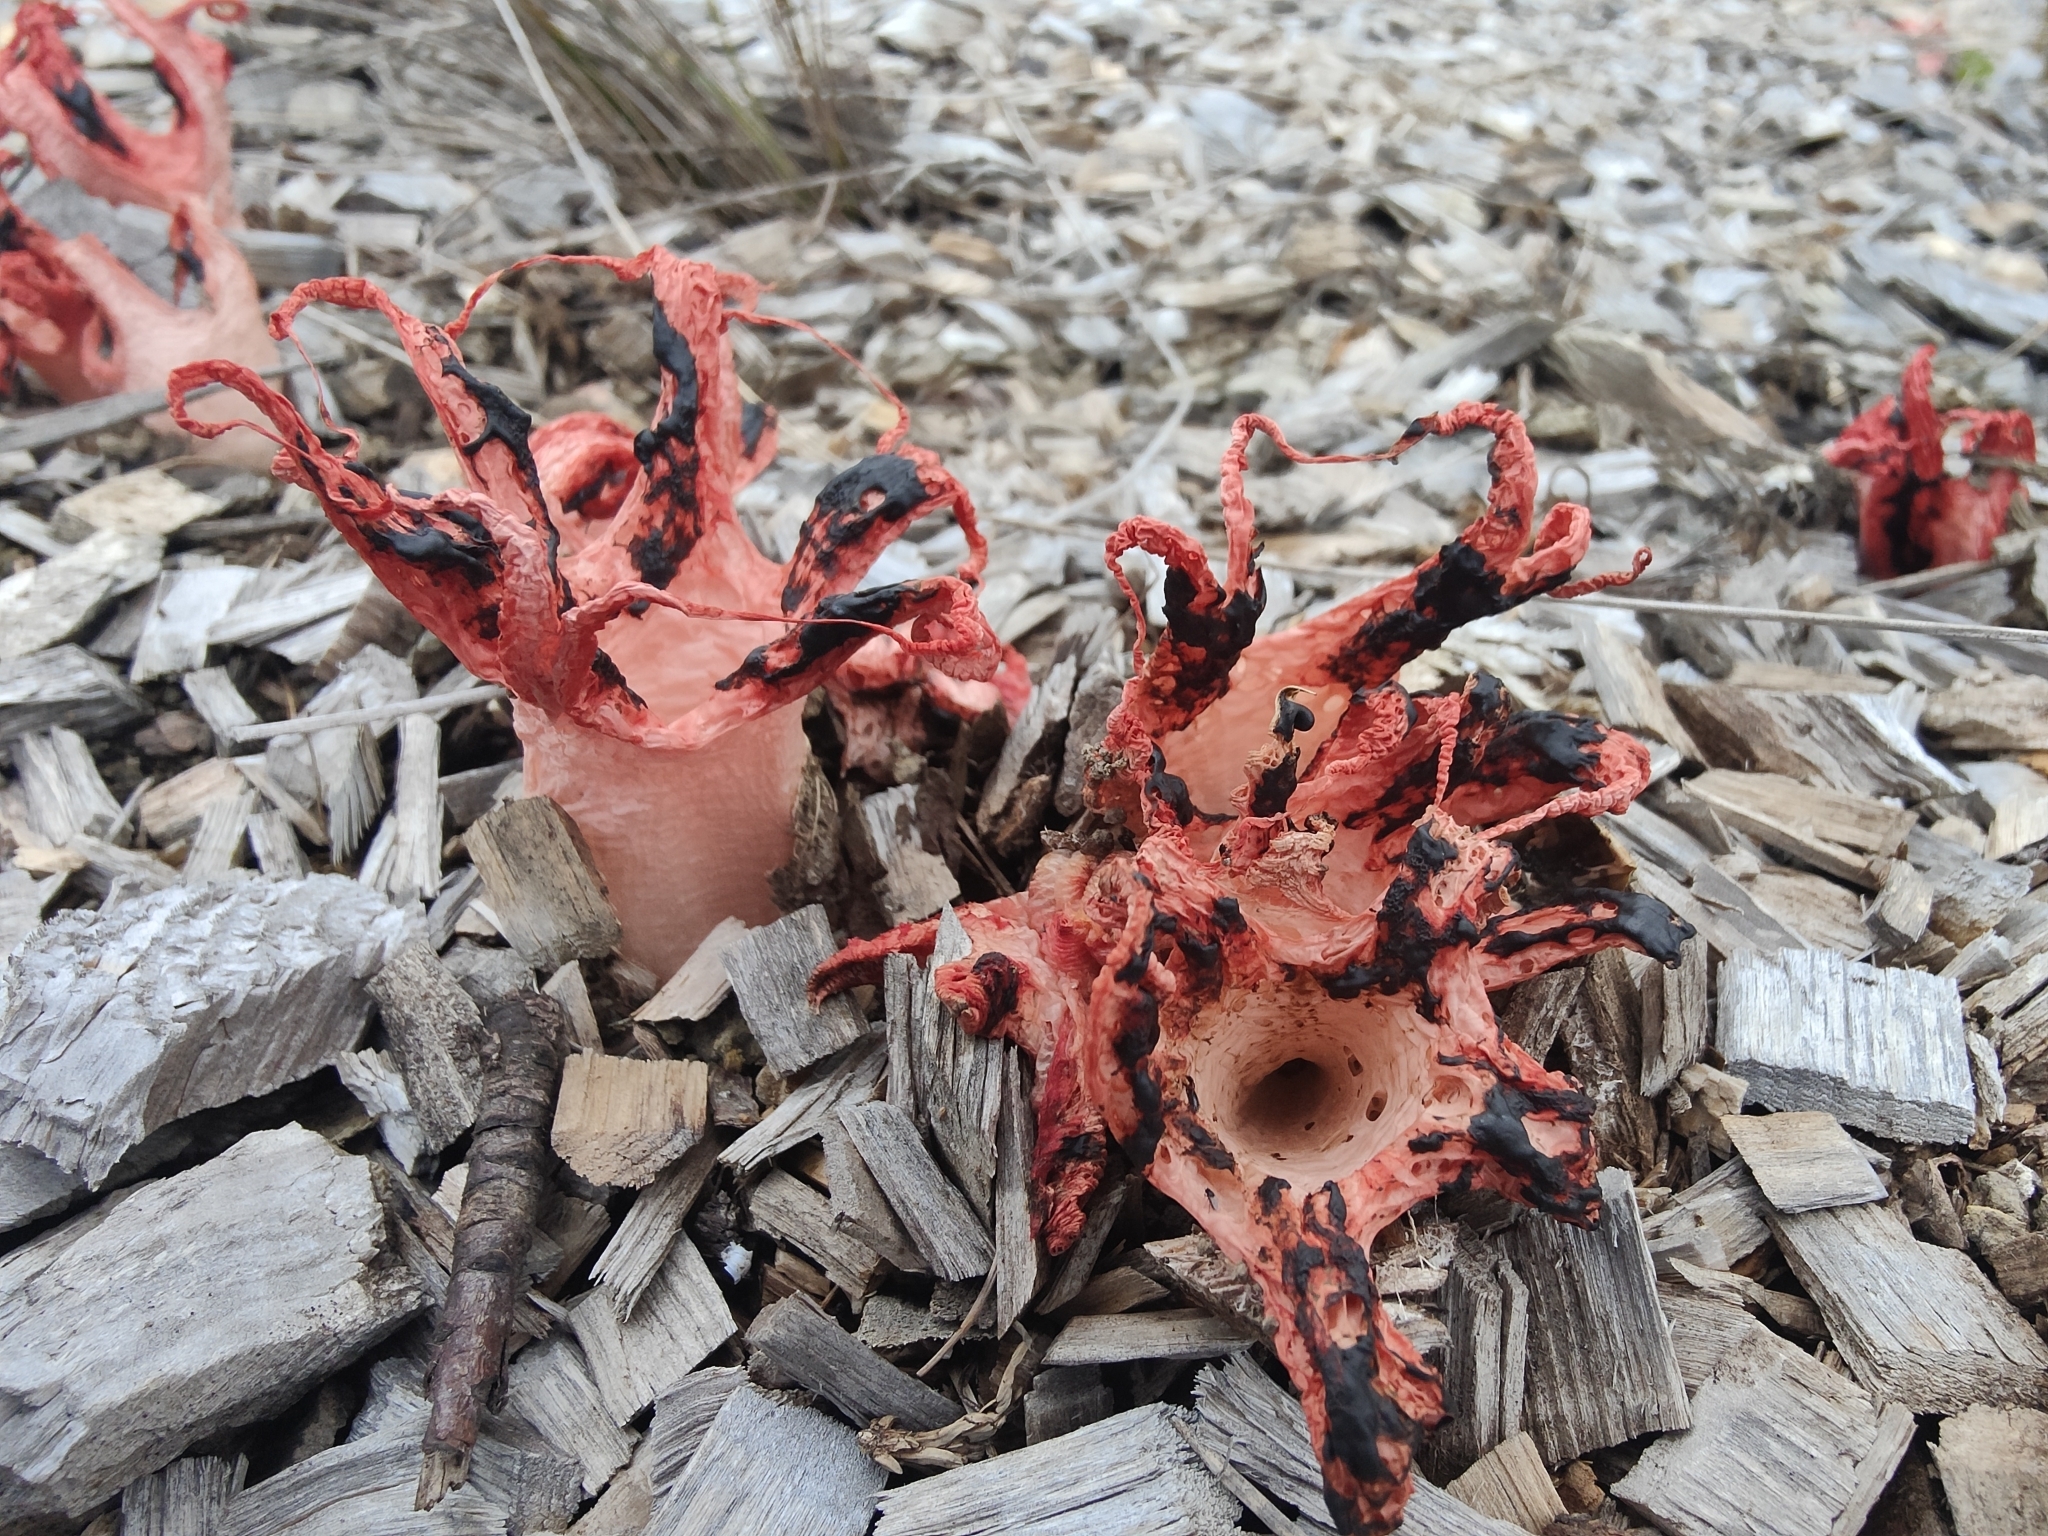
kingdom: Fungi
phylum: Basidiomycota
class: Agaricomycetes
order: Phallales
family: Phallaceae
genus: Clathrus
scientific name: Clathrus archeri
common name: Devil's fingers
